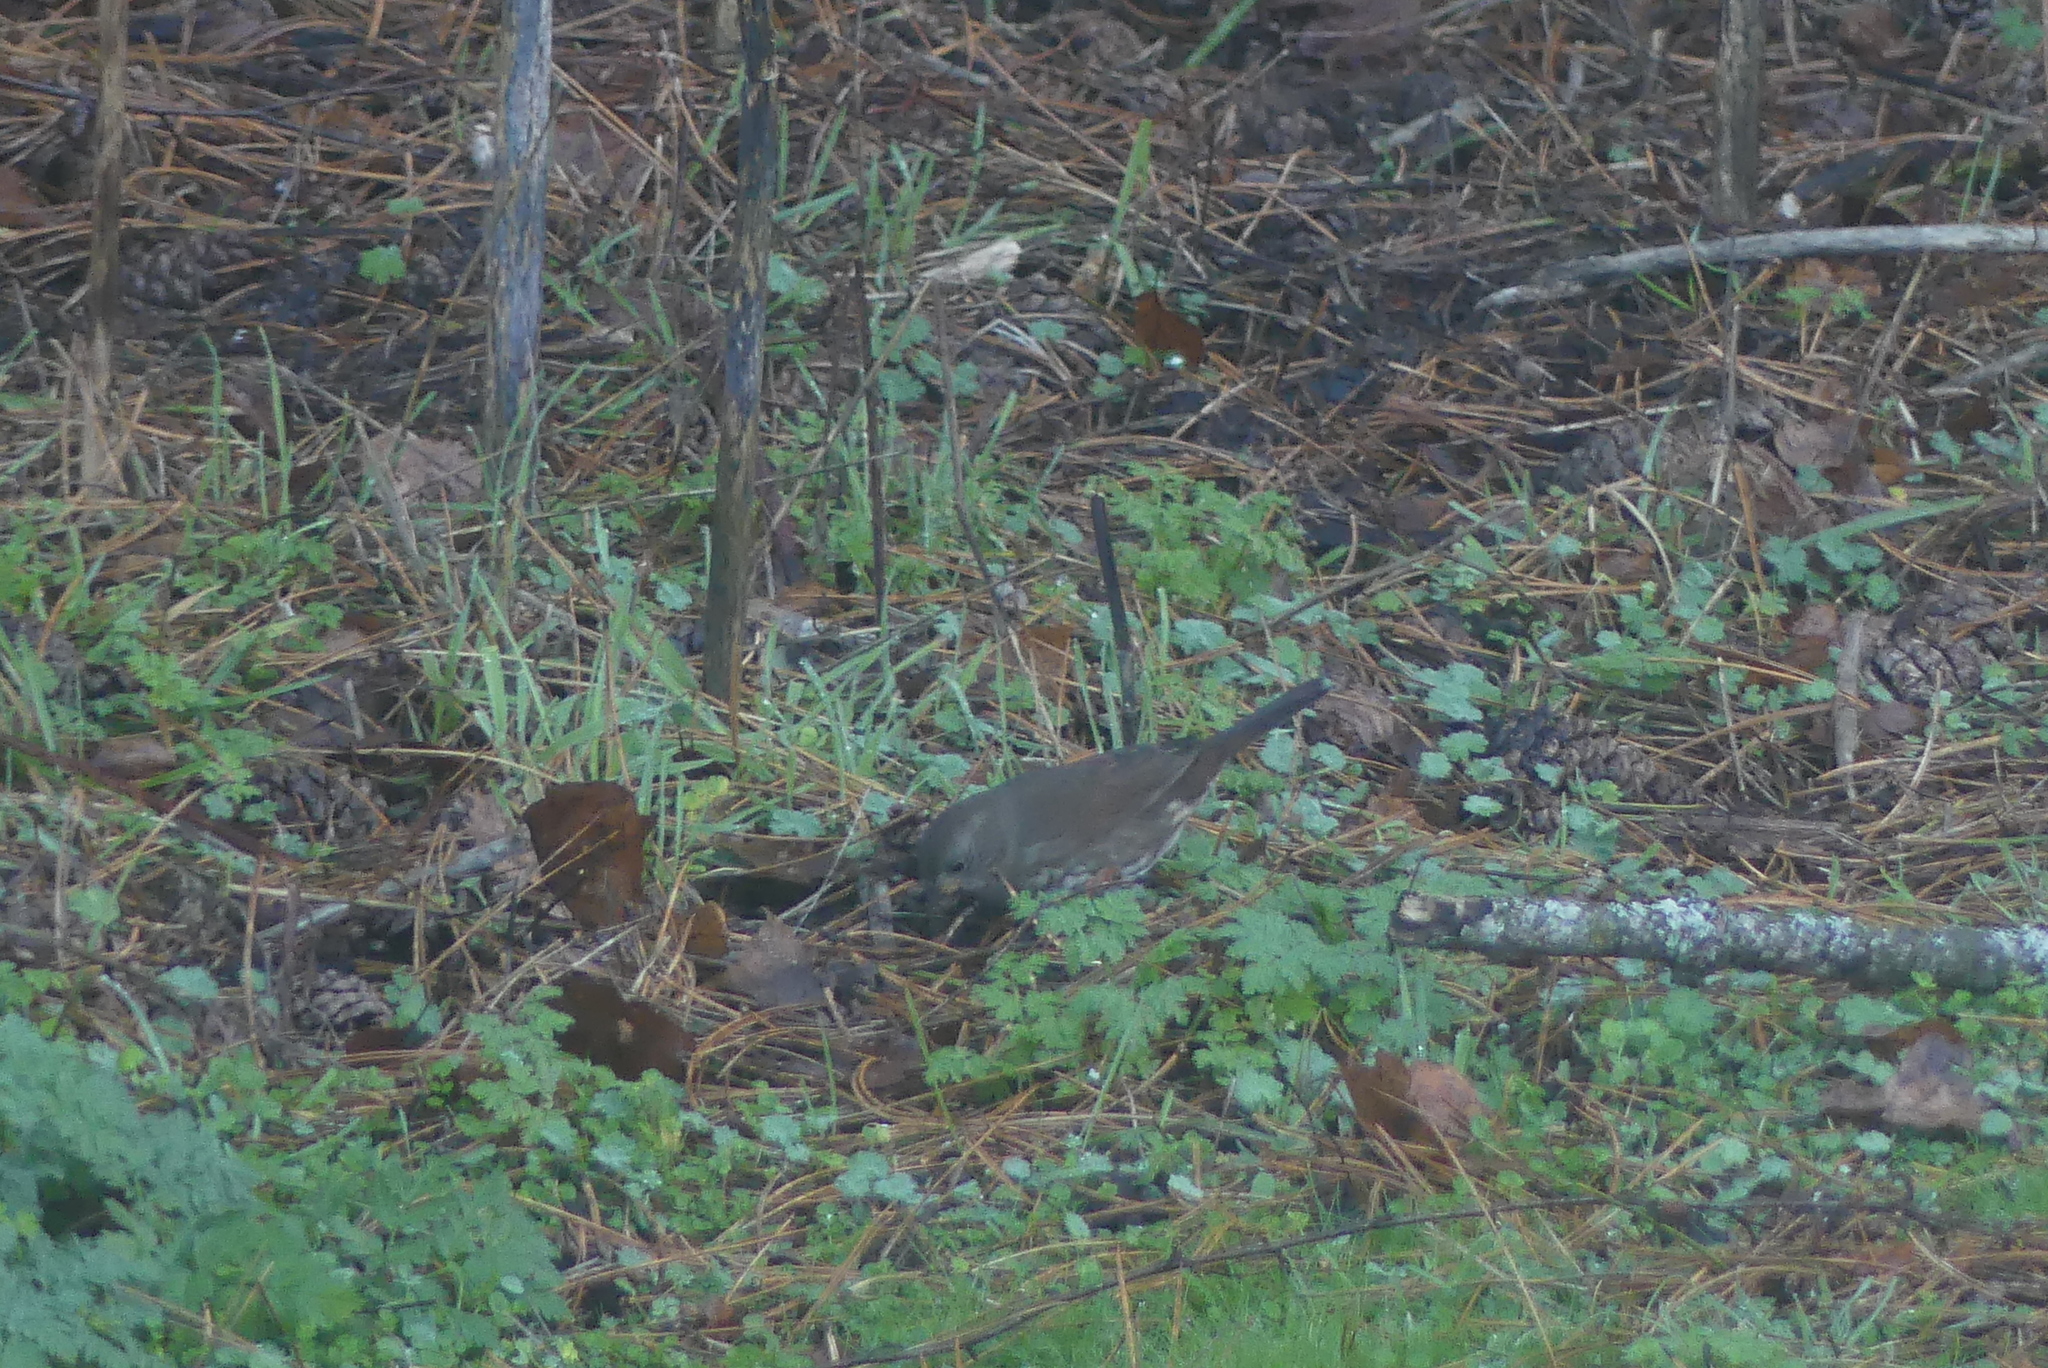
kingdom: Animalia
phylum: Chordata
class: Aves
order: Passeriformes
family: Passerellidae
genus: Passerella
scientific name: Passerella iliaca
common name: Fox sparrow
